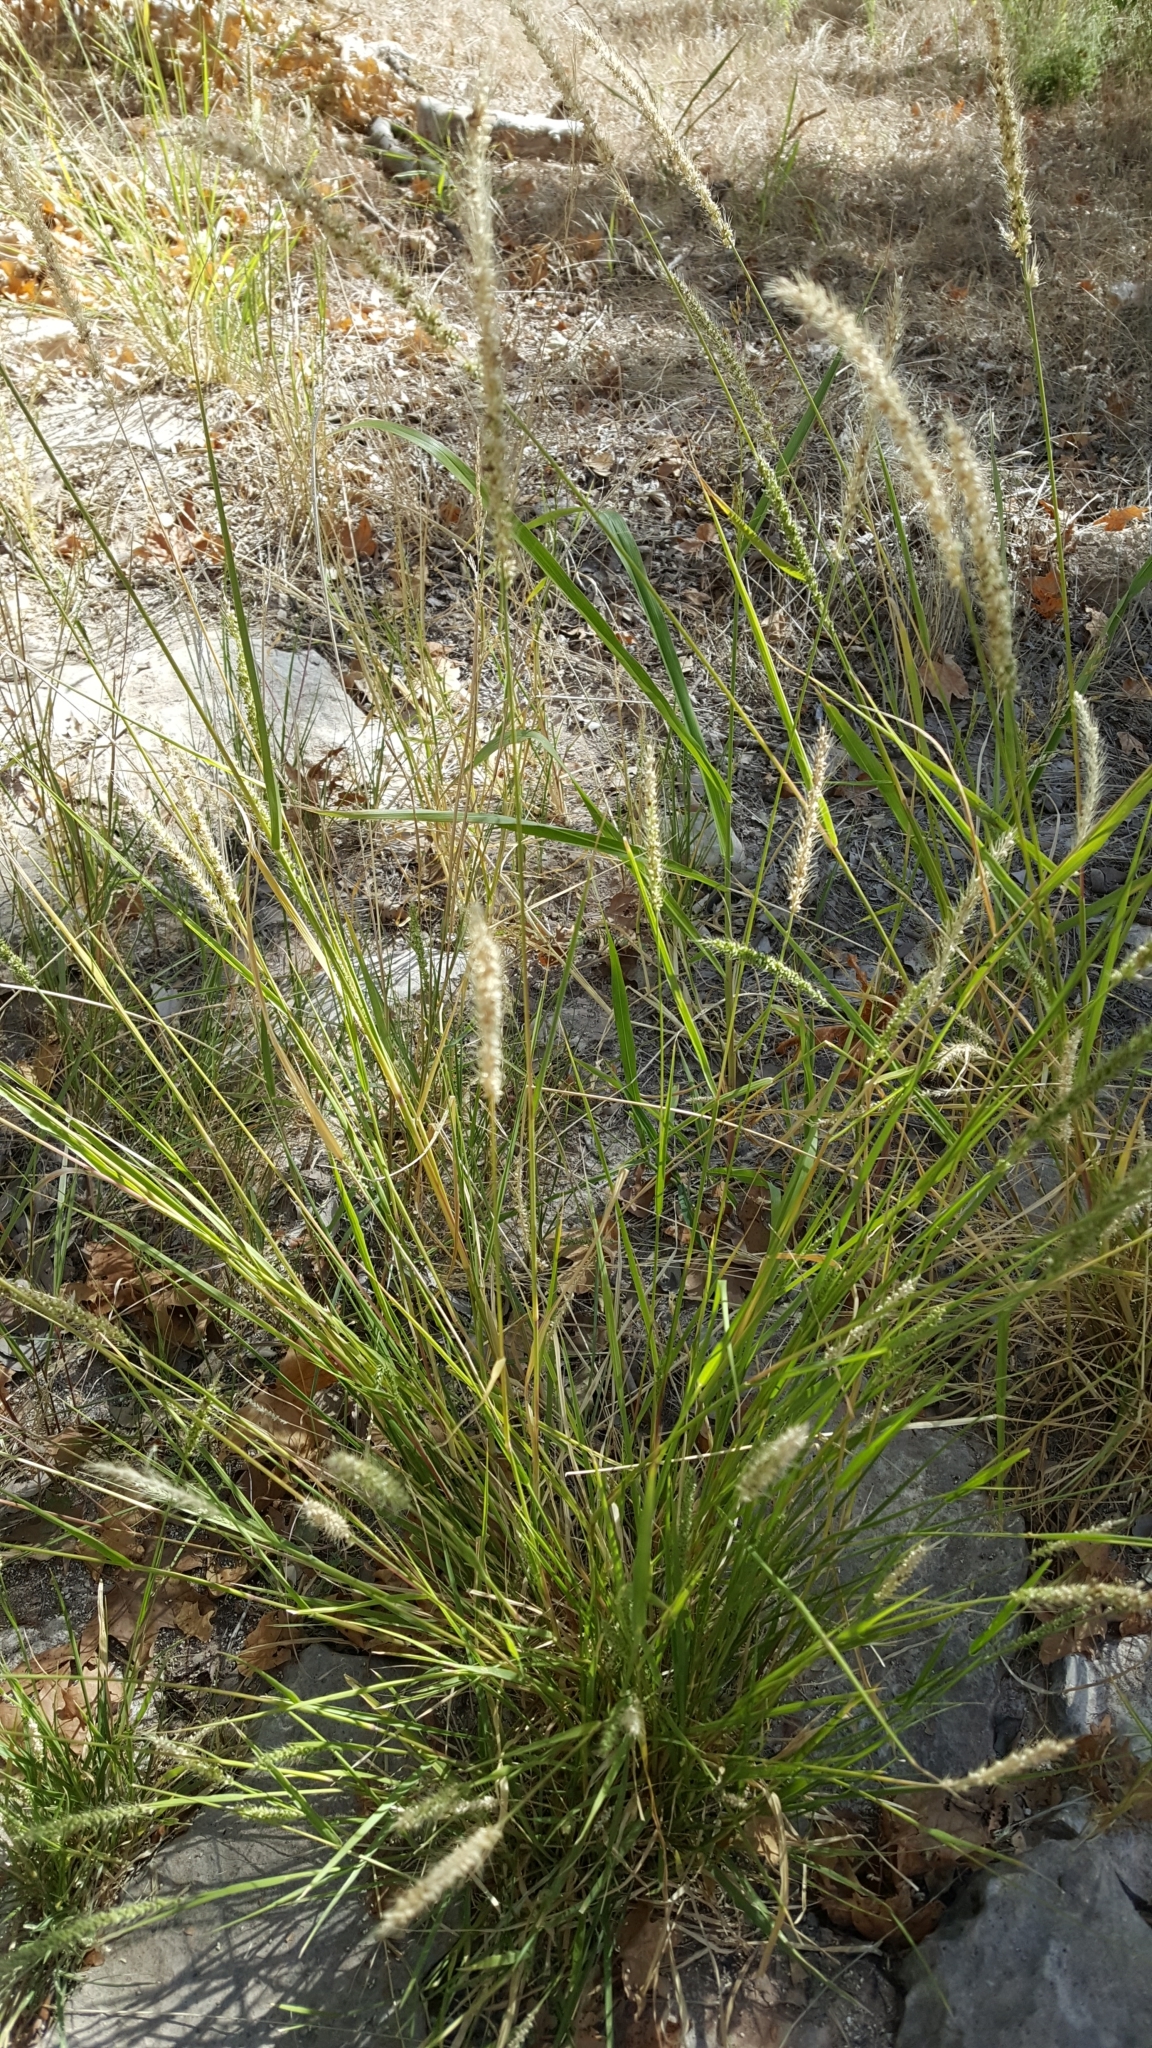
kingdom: Plantae
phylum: Tracheophyta
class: Liliopsida
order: Poales
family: Poaceae
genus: Setaria
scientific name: Setaria leucopila
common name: Plains bristle grass
